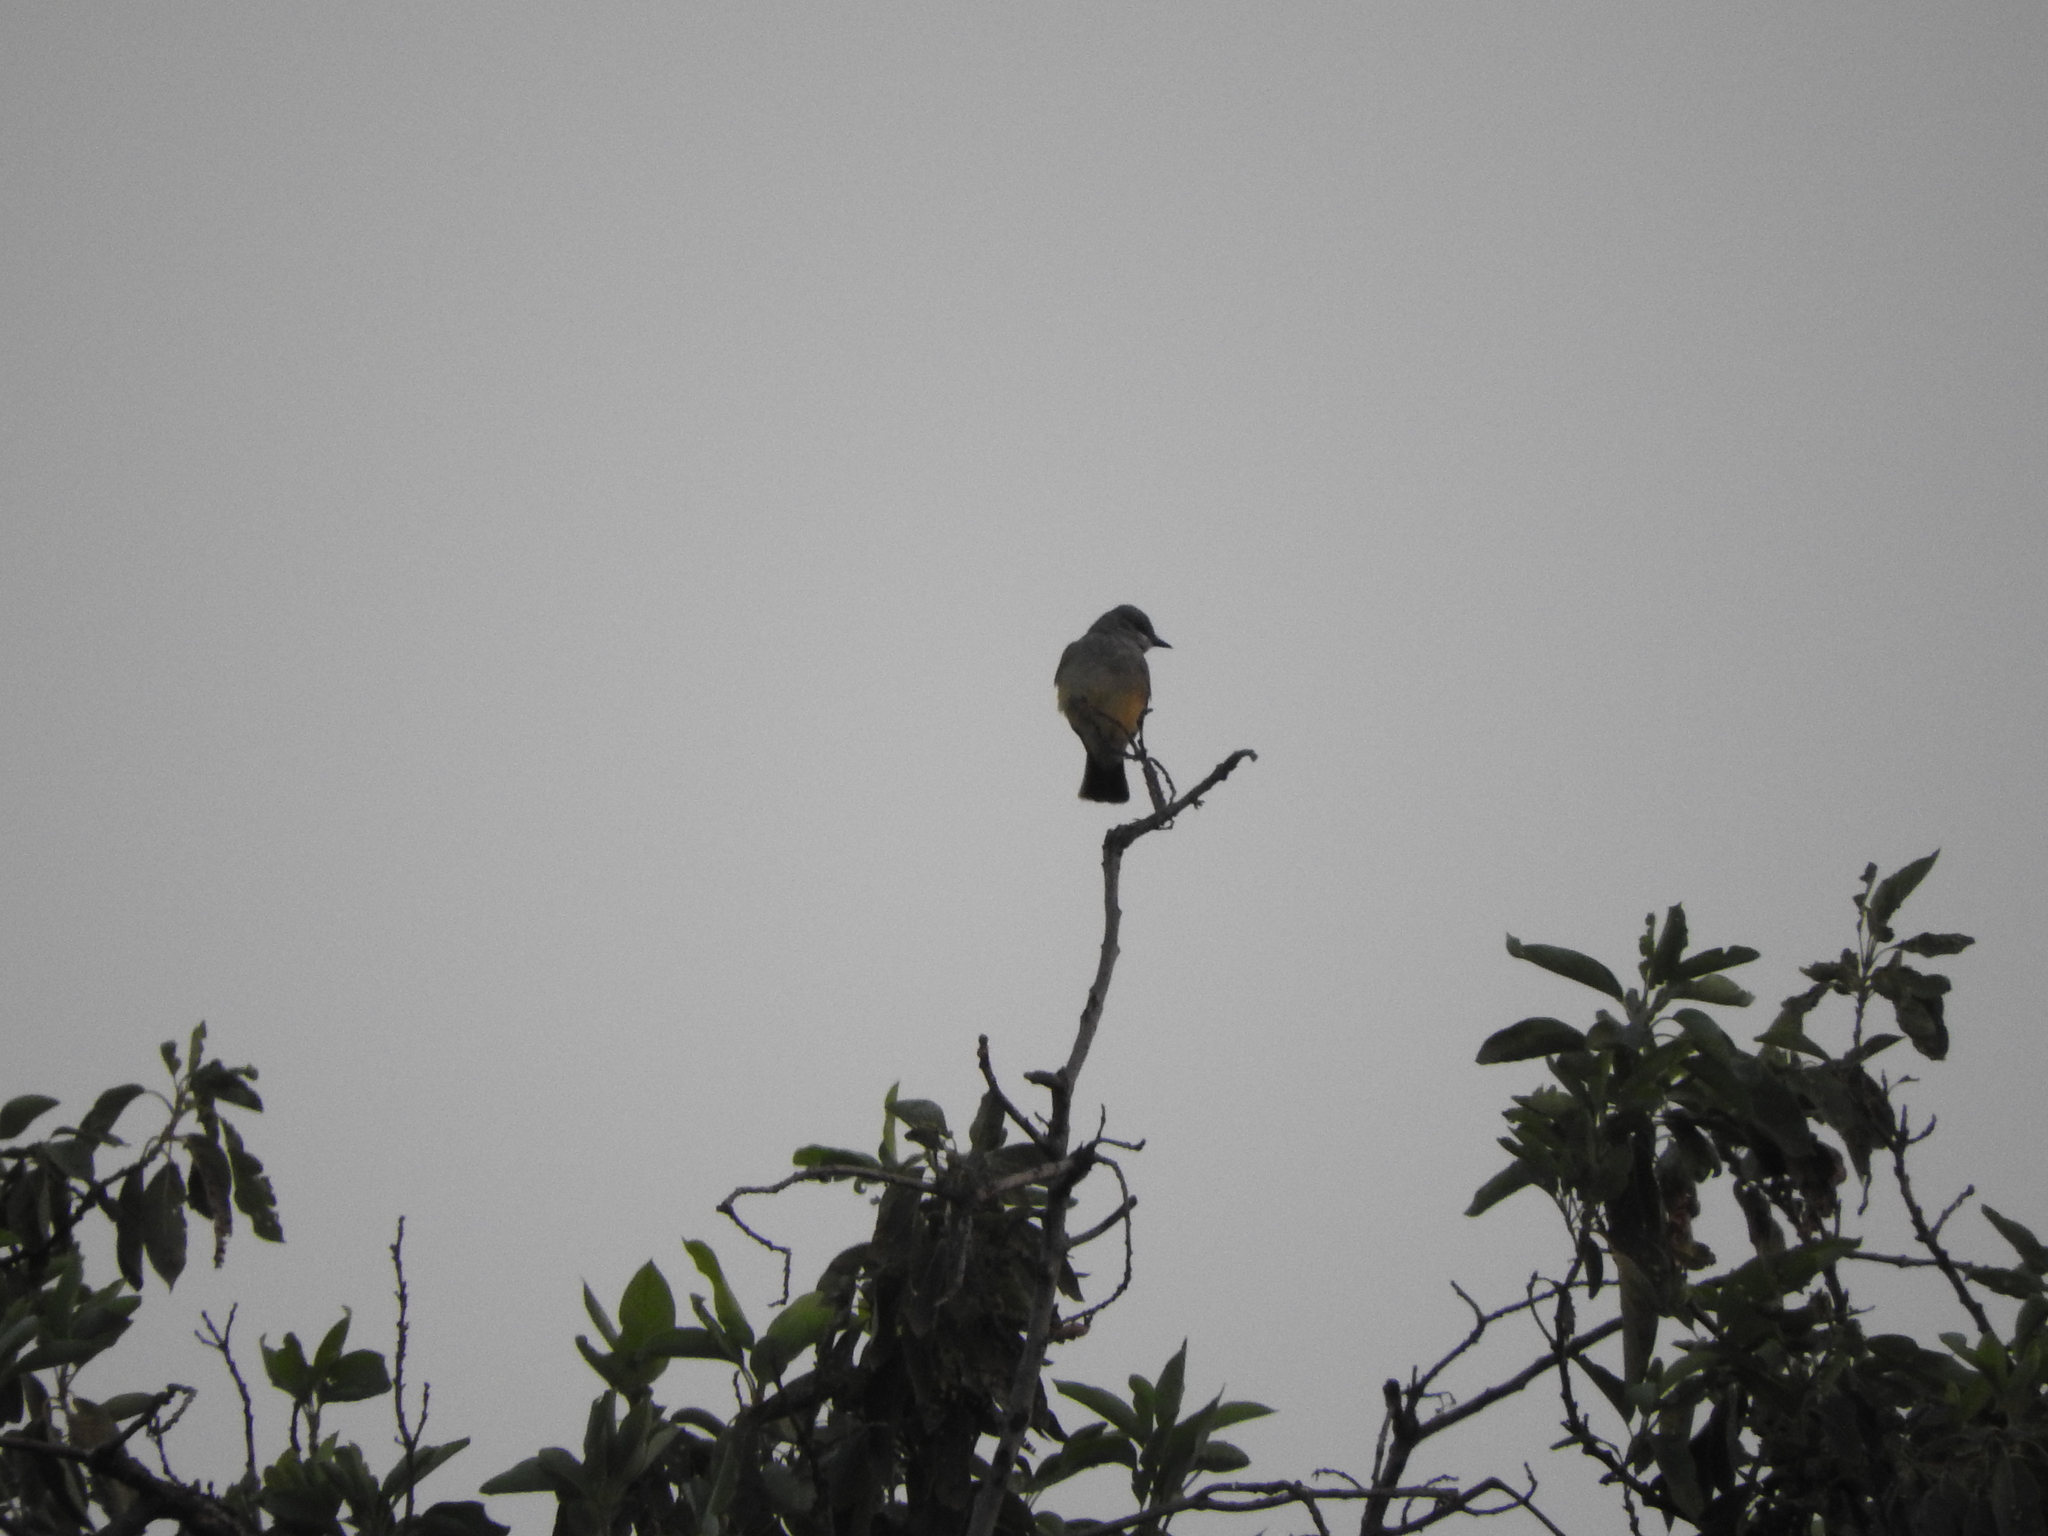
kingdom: Animalia
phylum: Chordata
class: Aves
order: Passeriformes
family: Tyrannidae
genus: Tyrannus
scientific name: Tyrannus vociferans
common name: Cassin's kingbird
